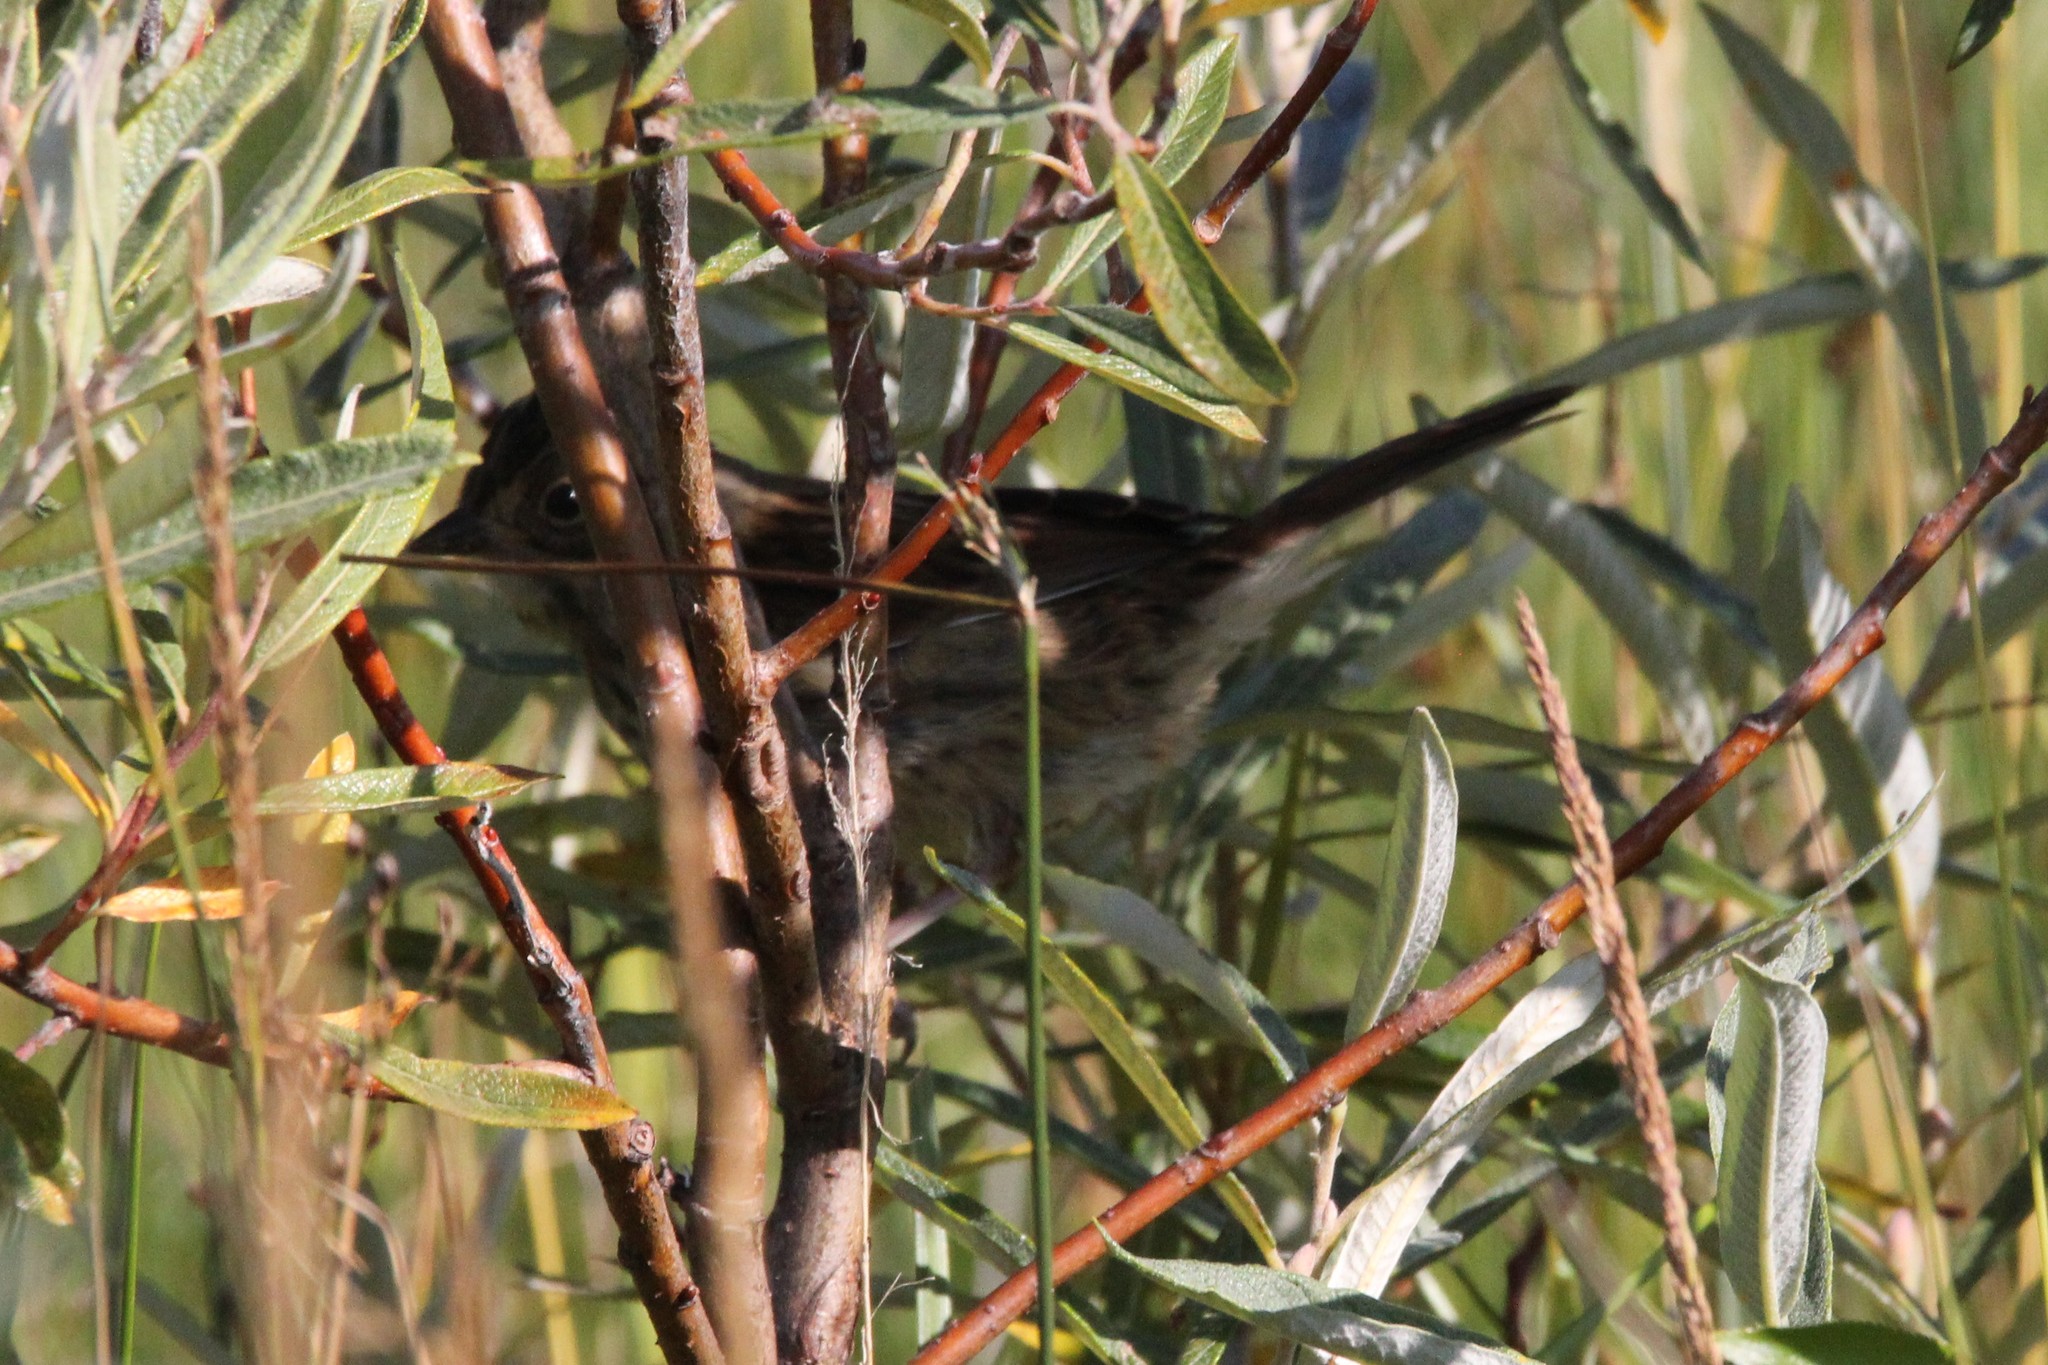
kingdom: Animalia
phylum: Chordata
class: Aves
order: Passeriformes
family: Passerellidae
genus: Melospiza
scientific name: Melospiza lincolnii
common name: Lincoln's sparrow
